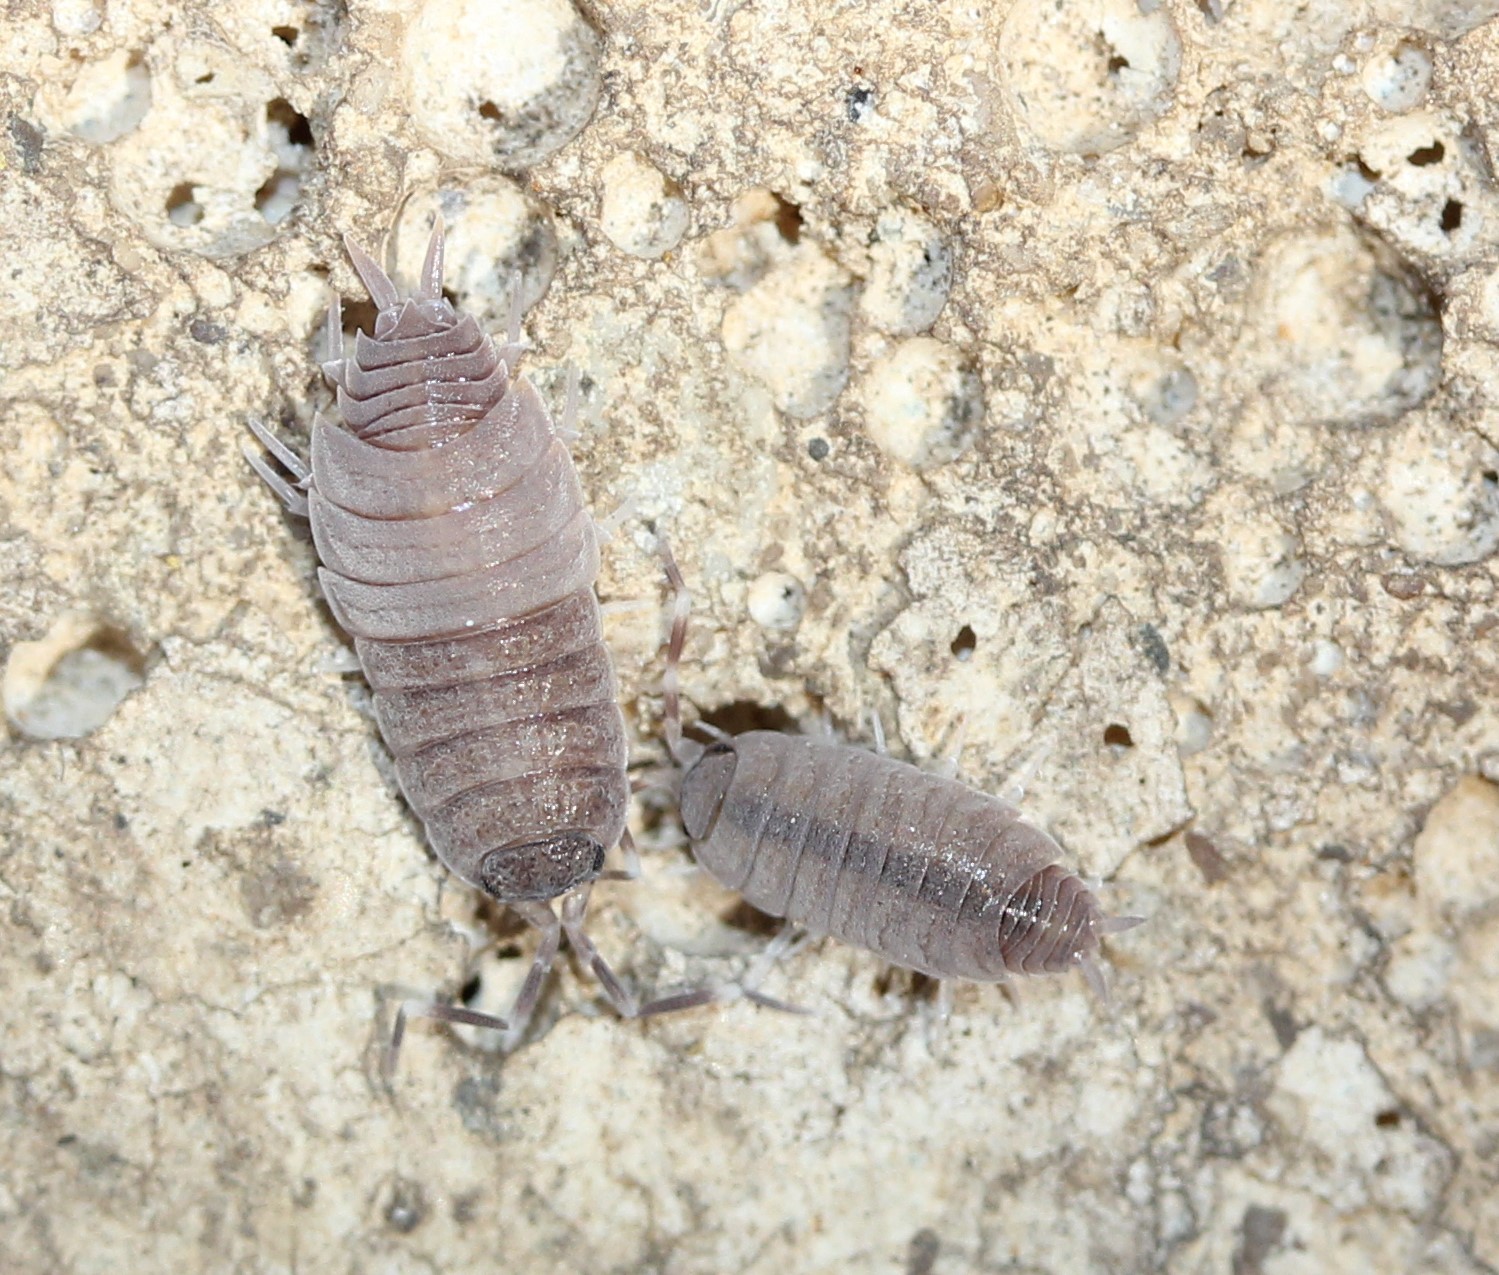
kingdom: Animalia
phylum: Arthropoda
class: Malacostraca
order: Isopoda
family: Porcellionidae
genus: Porcellionides
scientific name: Porcellionides pruinosus
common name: Plum woodlouse
